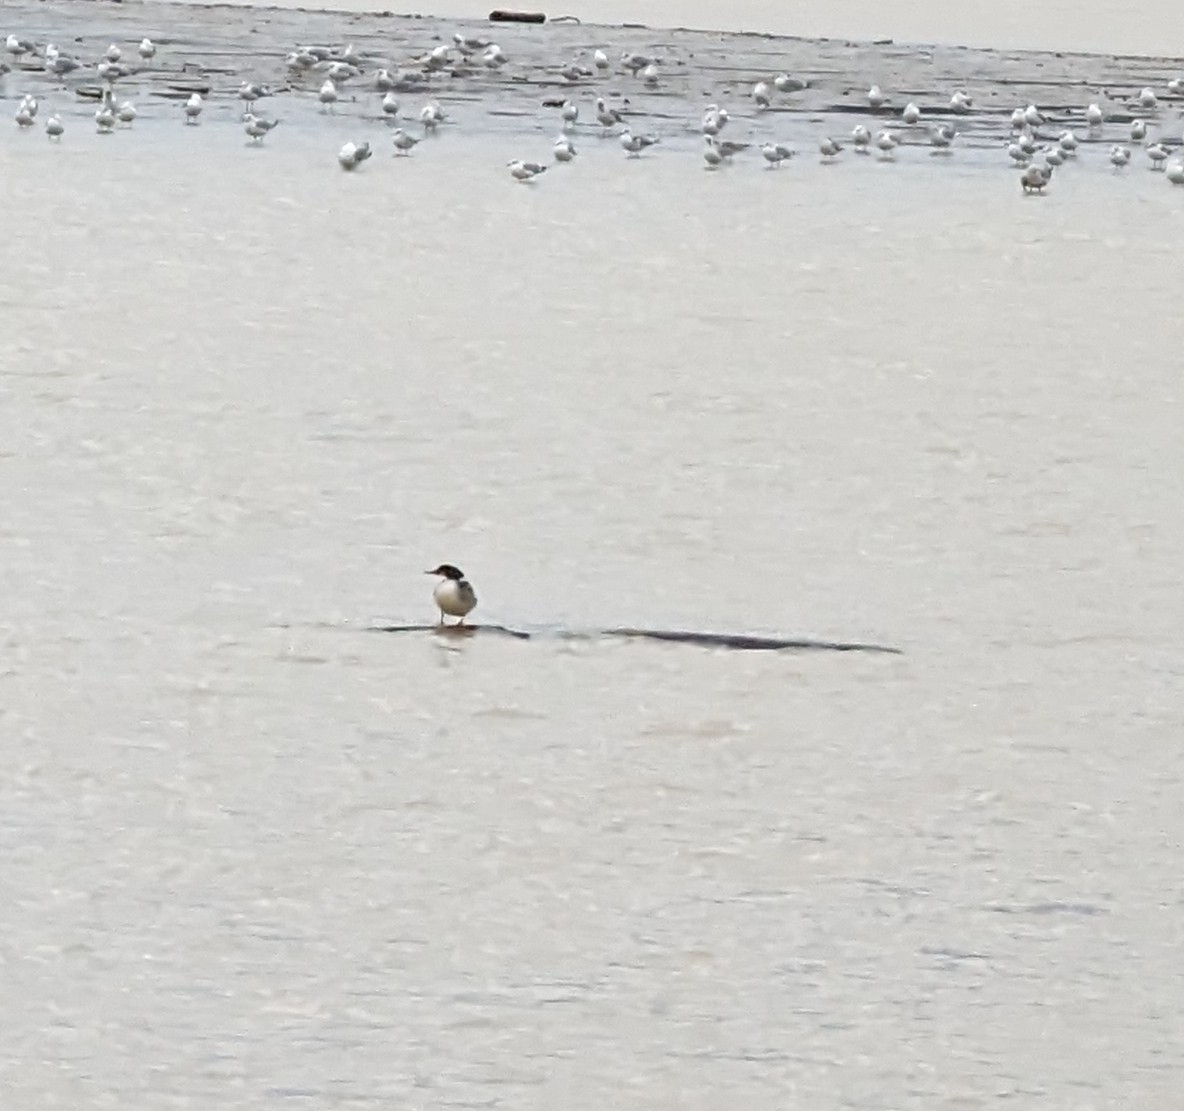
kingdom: Animalia
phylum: Chordata
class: Aves
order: Anseriformes
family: Anatidae
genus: Mergus
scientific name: Mergus merganser
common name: Common merganser
